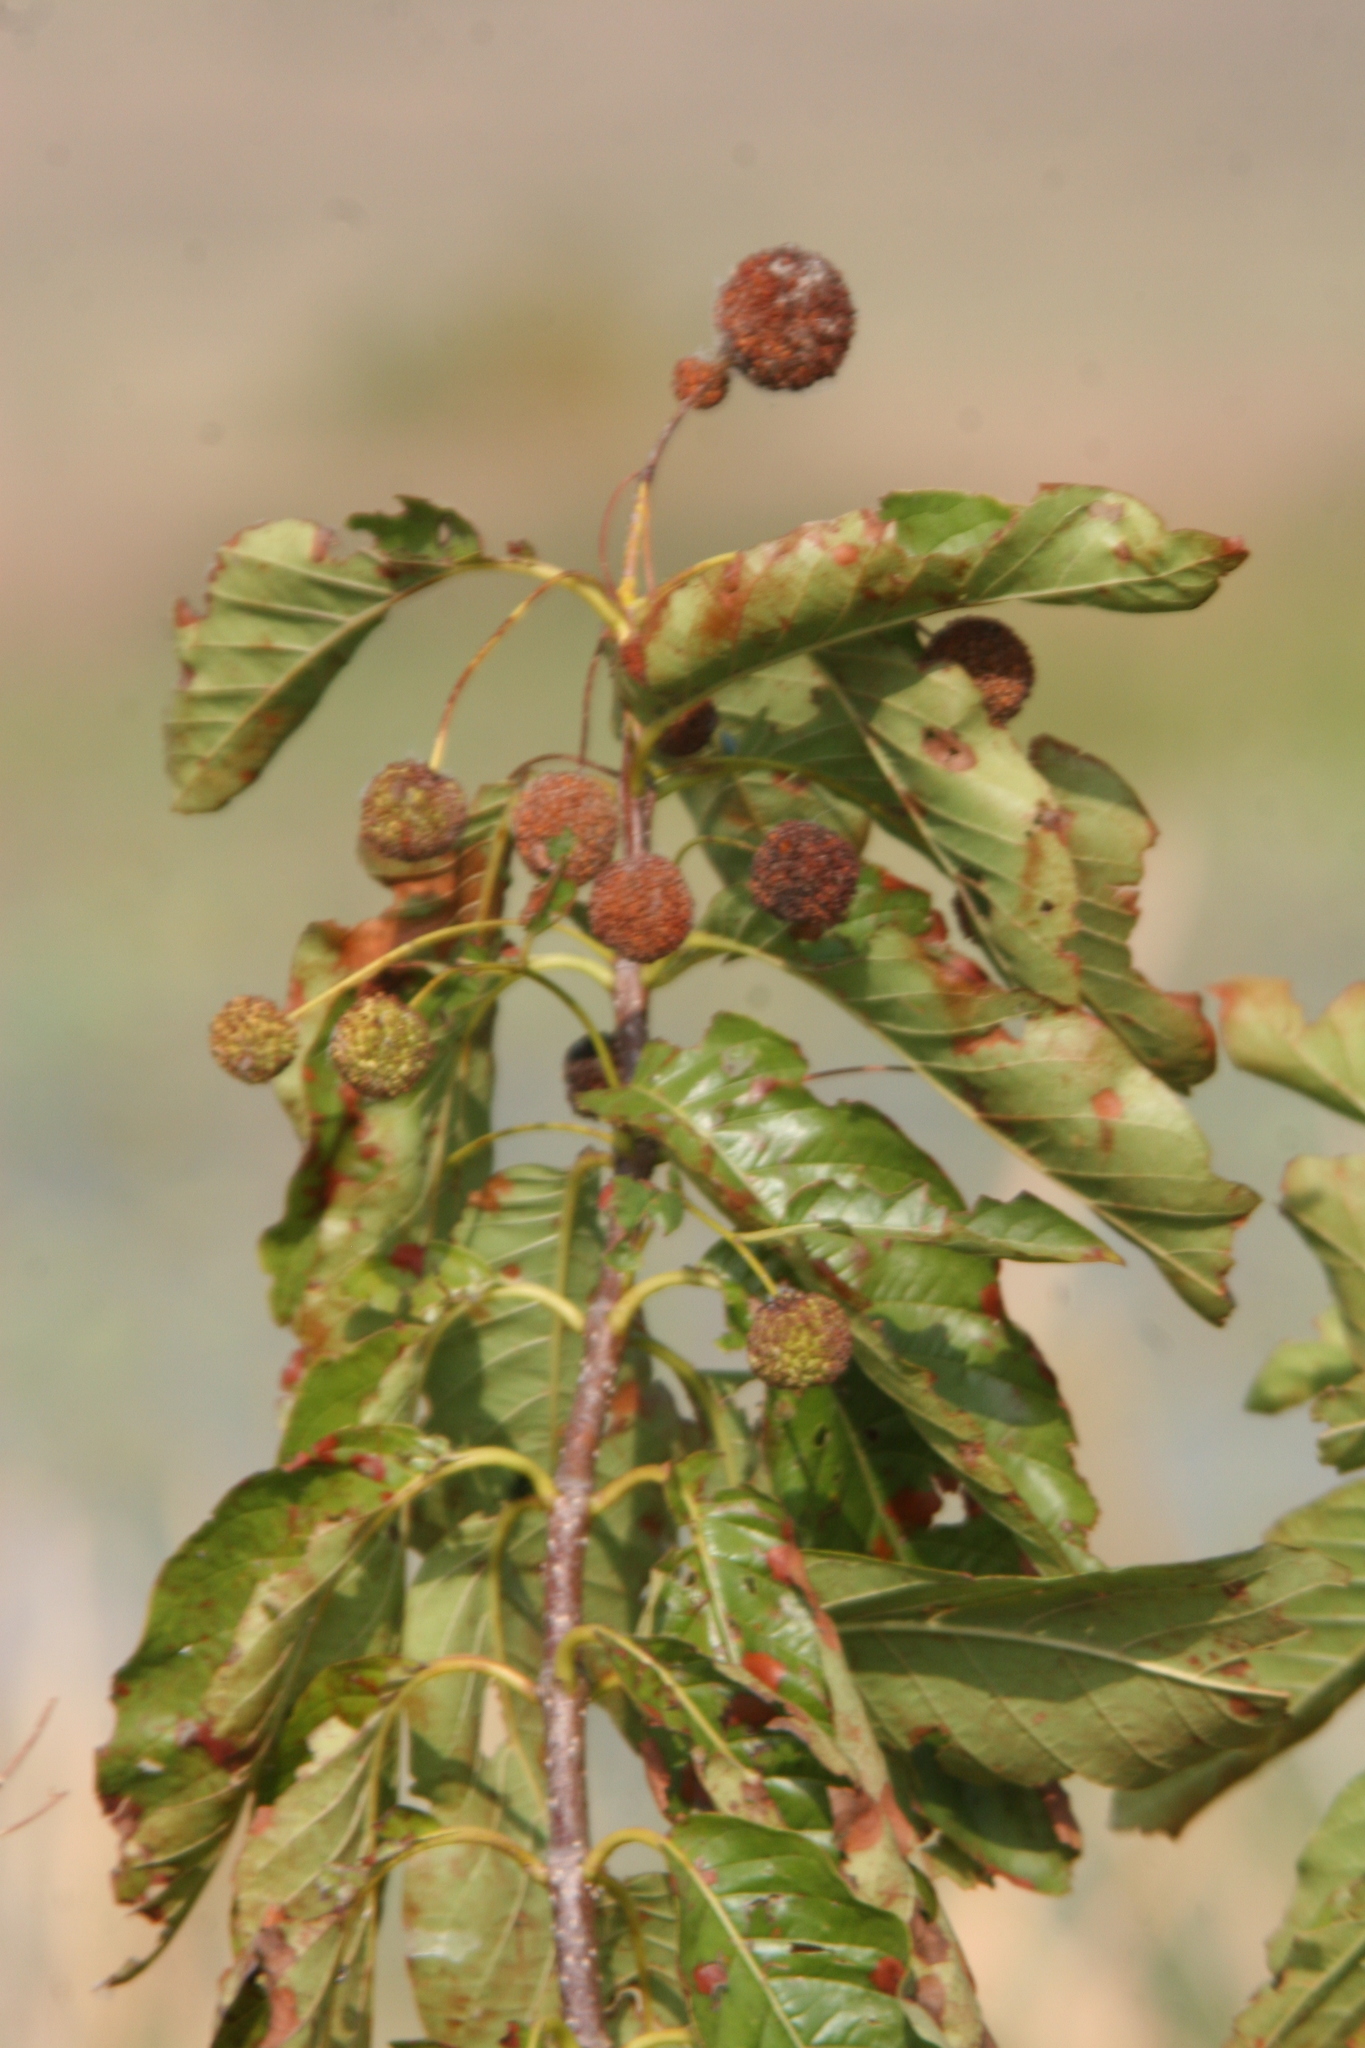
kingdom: Plantae
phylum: Tracheophyta
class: Magnoliopsida
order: Gentianales
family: Rubiaceae
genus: Cephalanthus
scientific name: Cephalanthus occidentalis
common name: Button-willow
